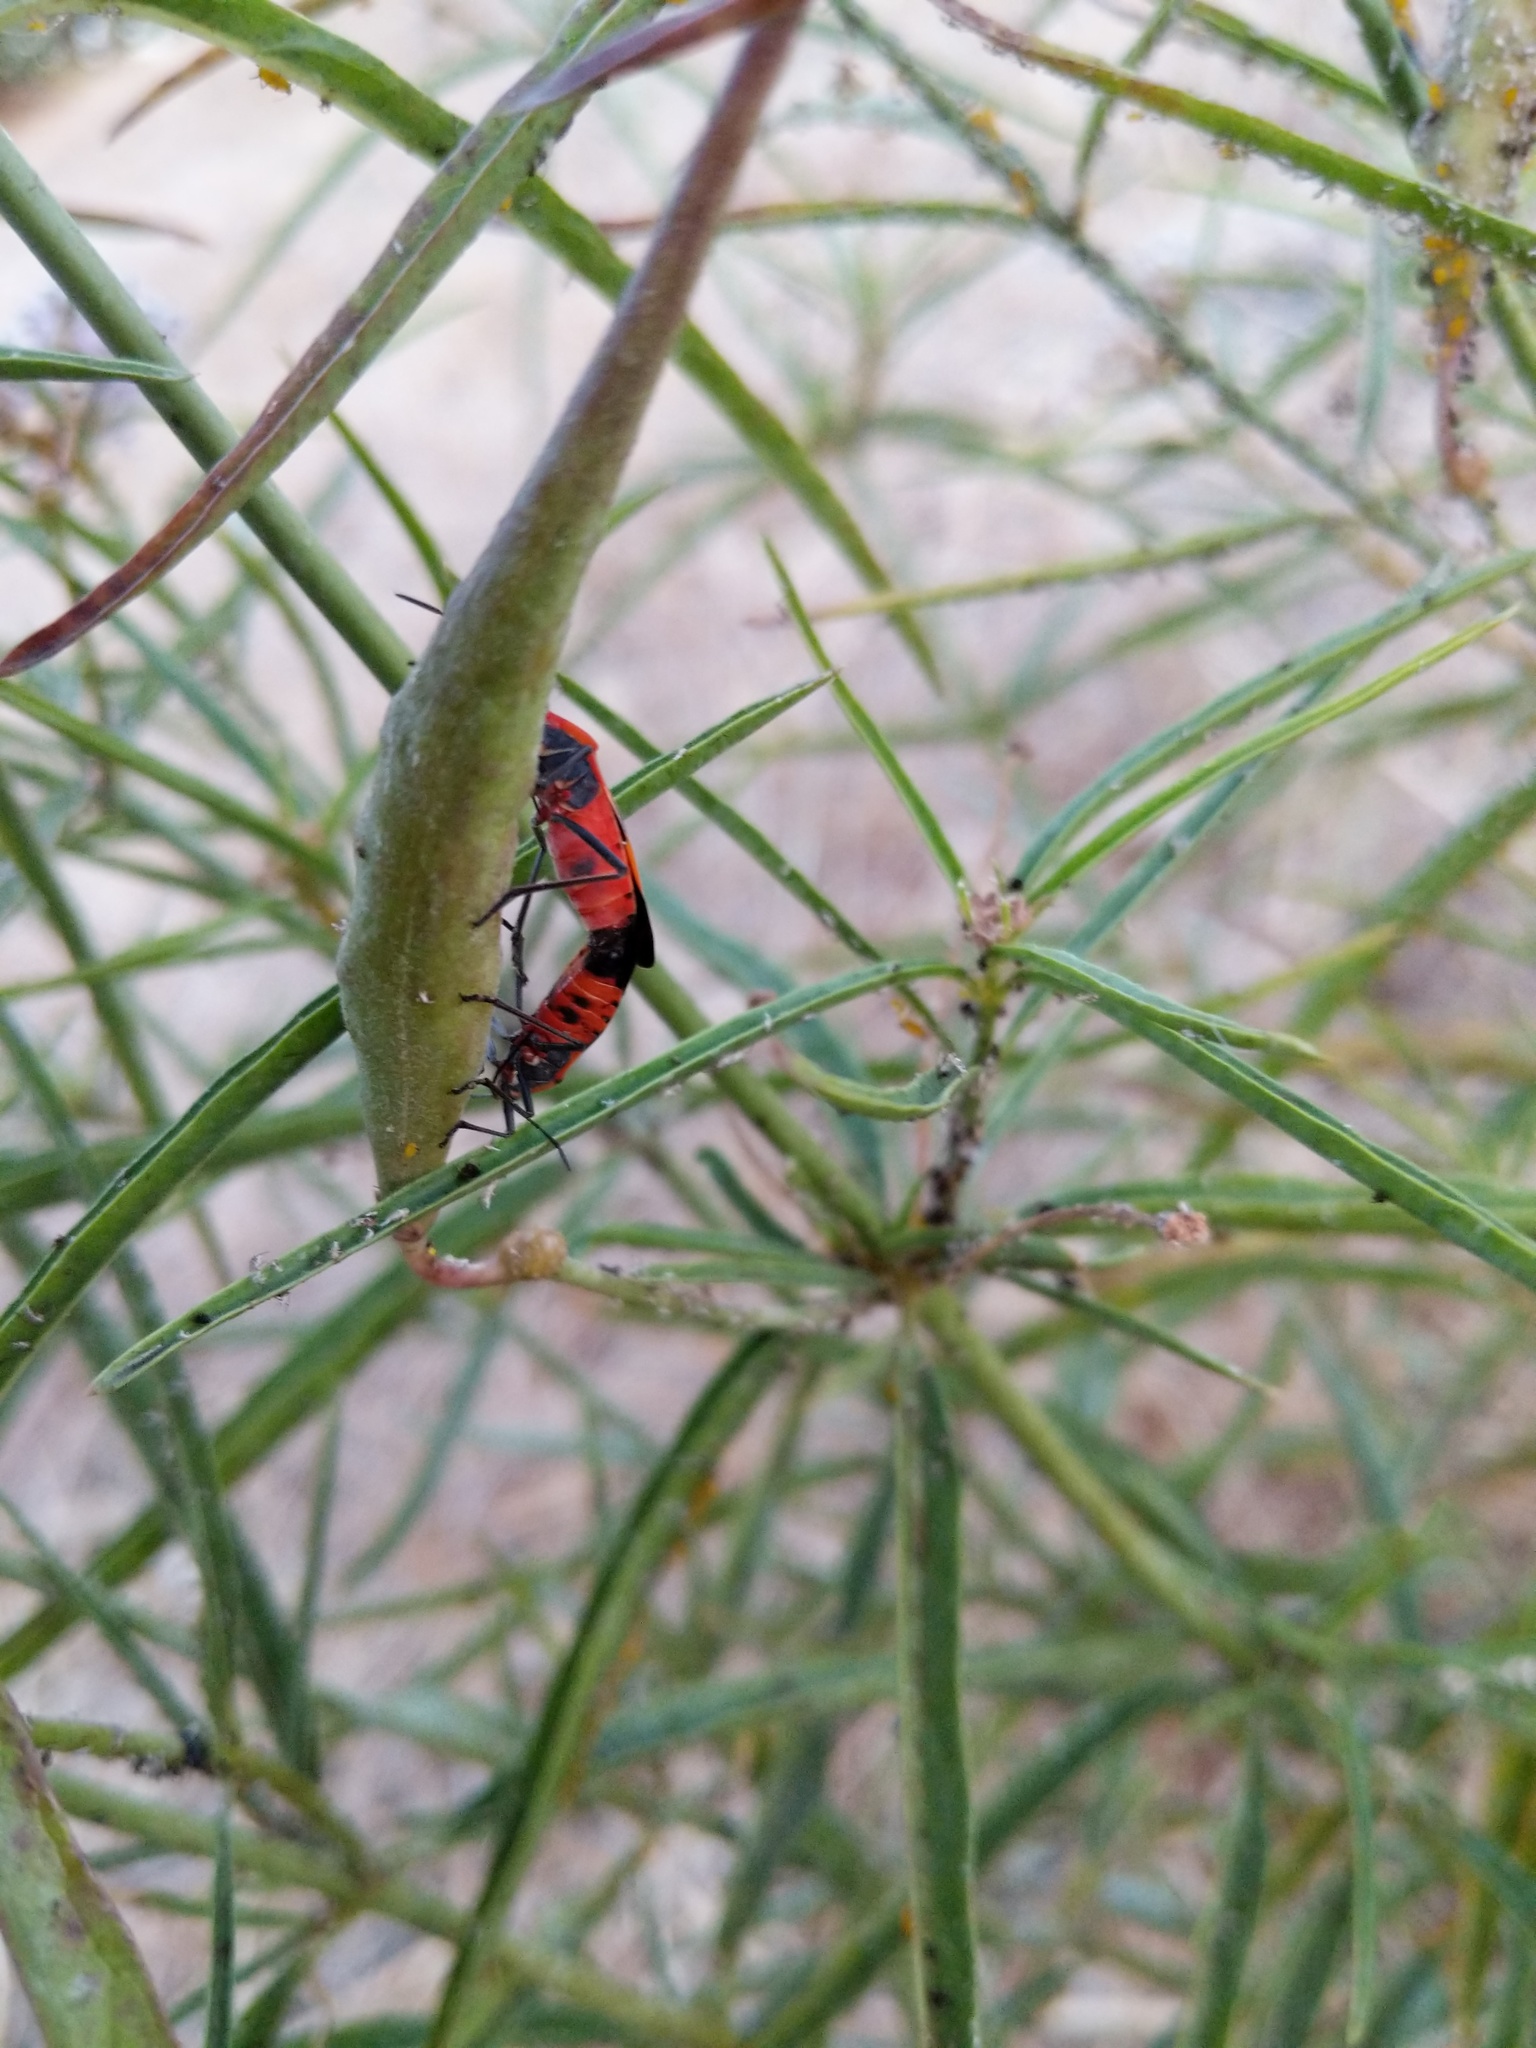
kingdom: Animalia
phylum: Arthropoda
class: Insecta
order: Hemiptera
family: Lygaeidae
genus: Oncopeltus
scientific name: Oncopeltus fasciatus
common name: Large milkweed bug
